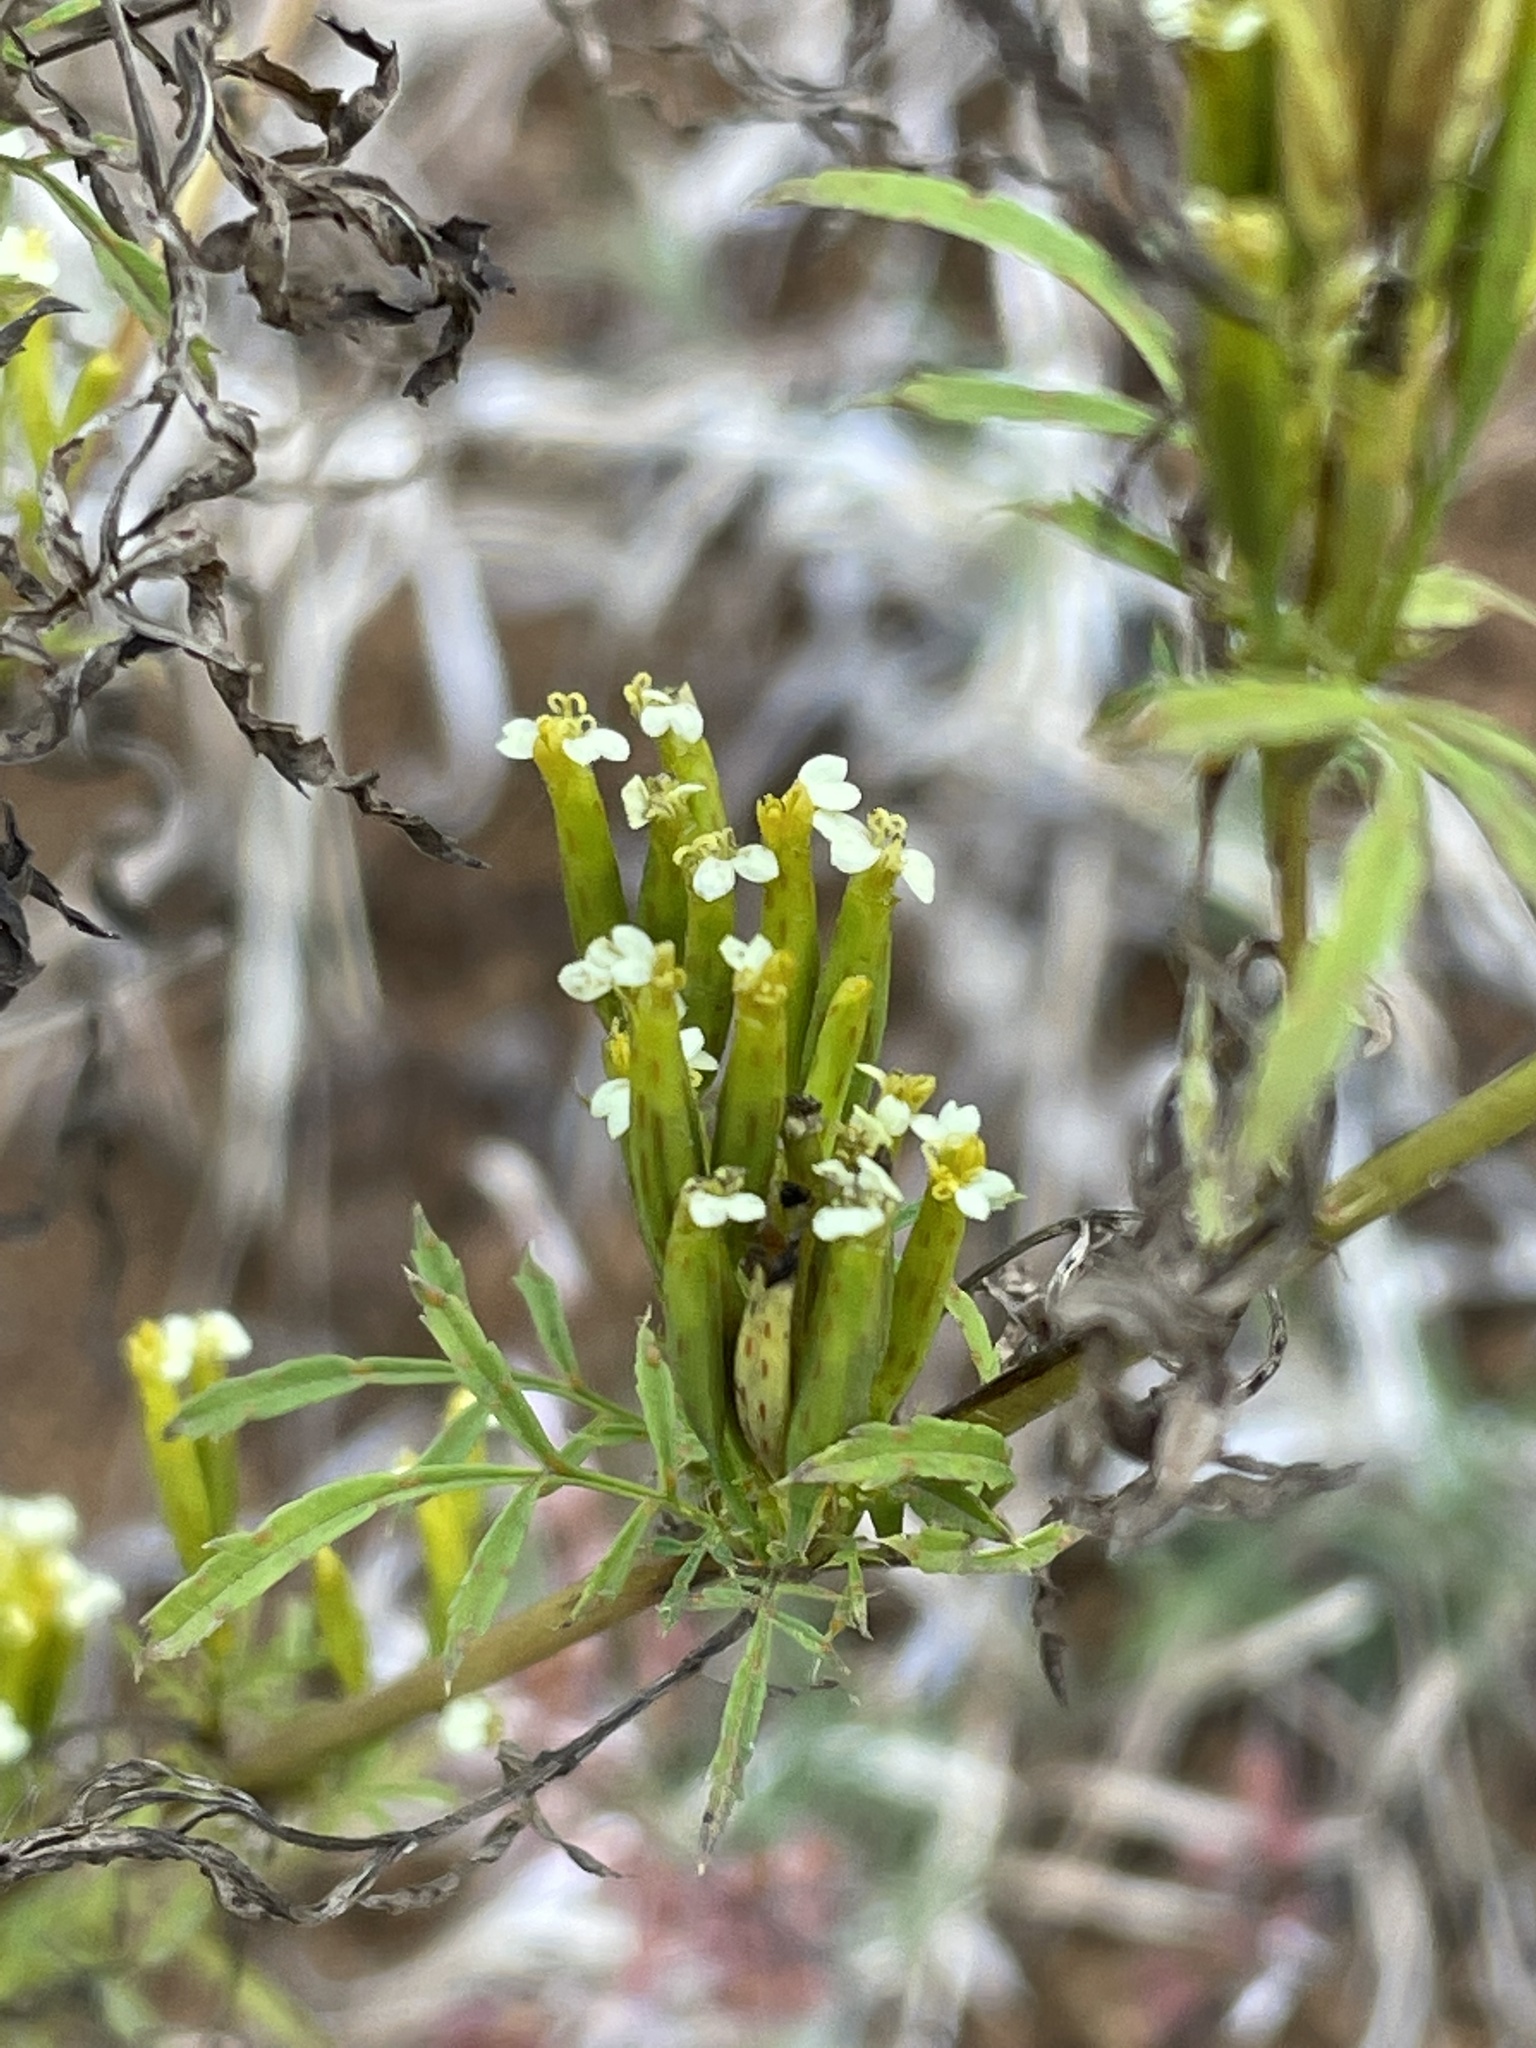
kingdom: Plantae
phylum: Tracheophyta
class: Magnoliopsida
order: Asterales
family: Asteraceae
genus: Tagetes
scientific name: Tagetes minuta
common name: Muster john henry
